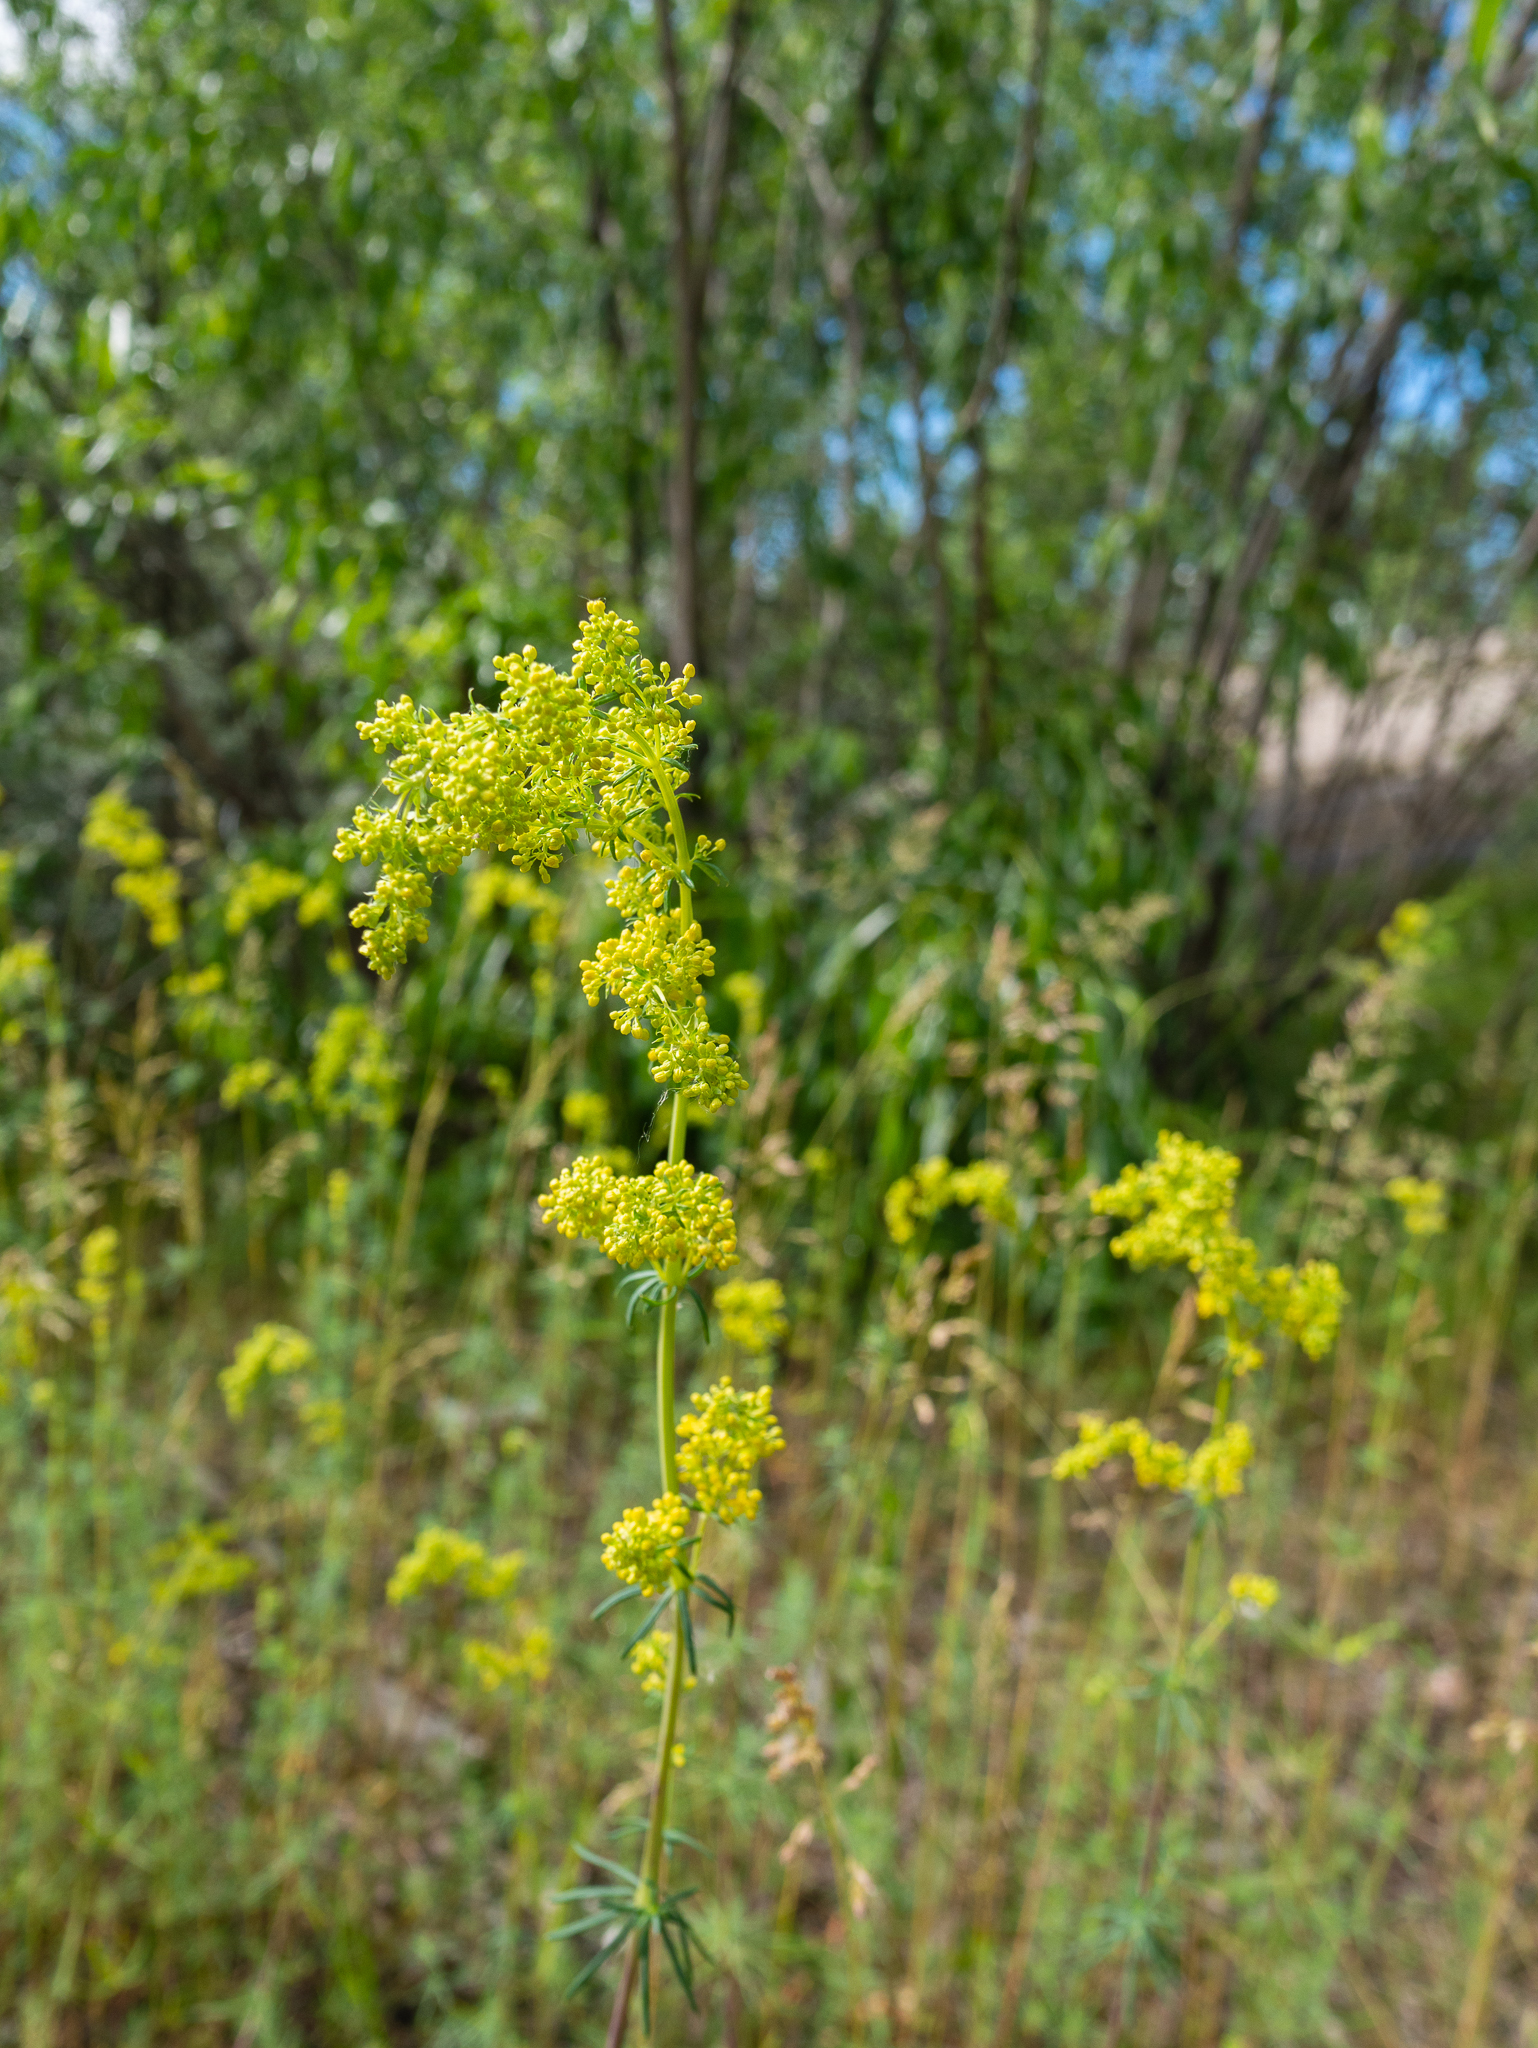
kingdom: Plantae
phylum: Tracheophyta
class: Magnoliopsida
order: Gentianales
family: Rubiaceae
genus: Galium
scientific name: Galium verum
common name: Lady's bedstraw
